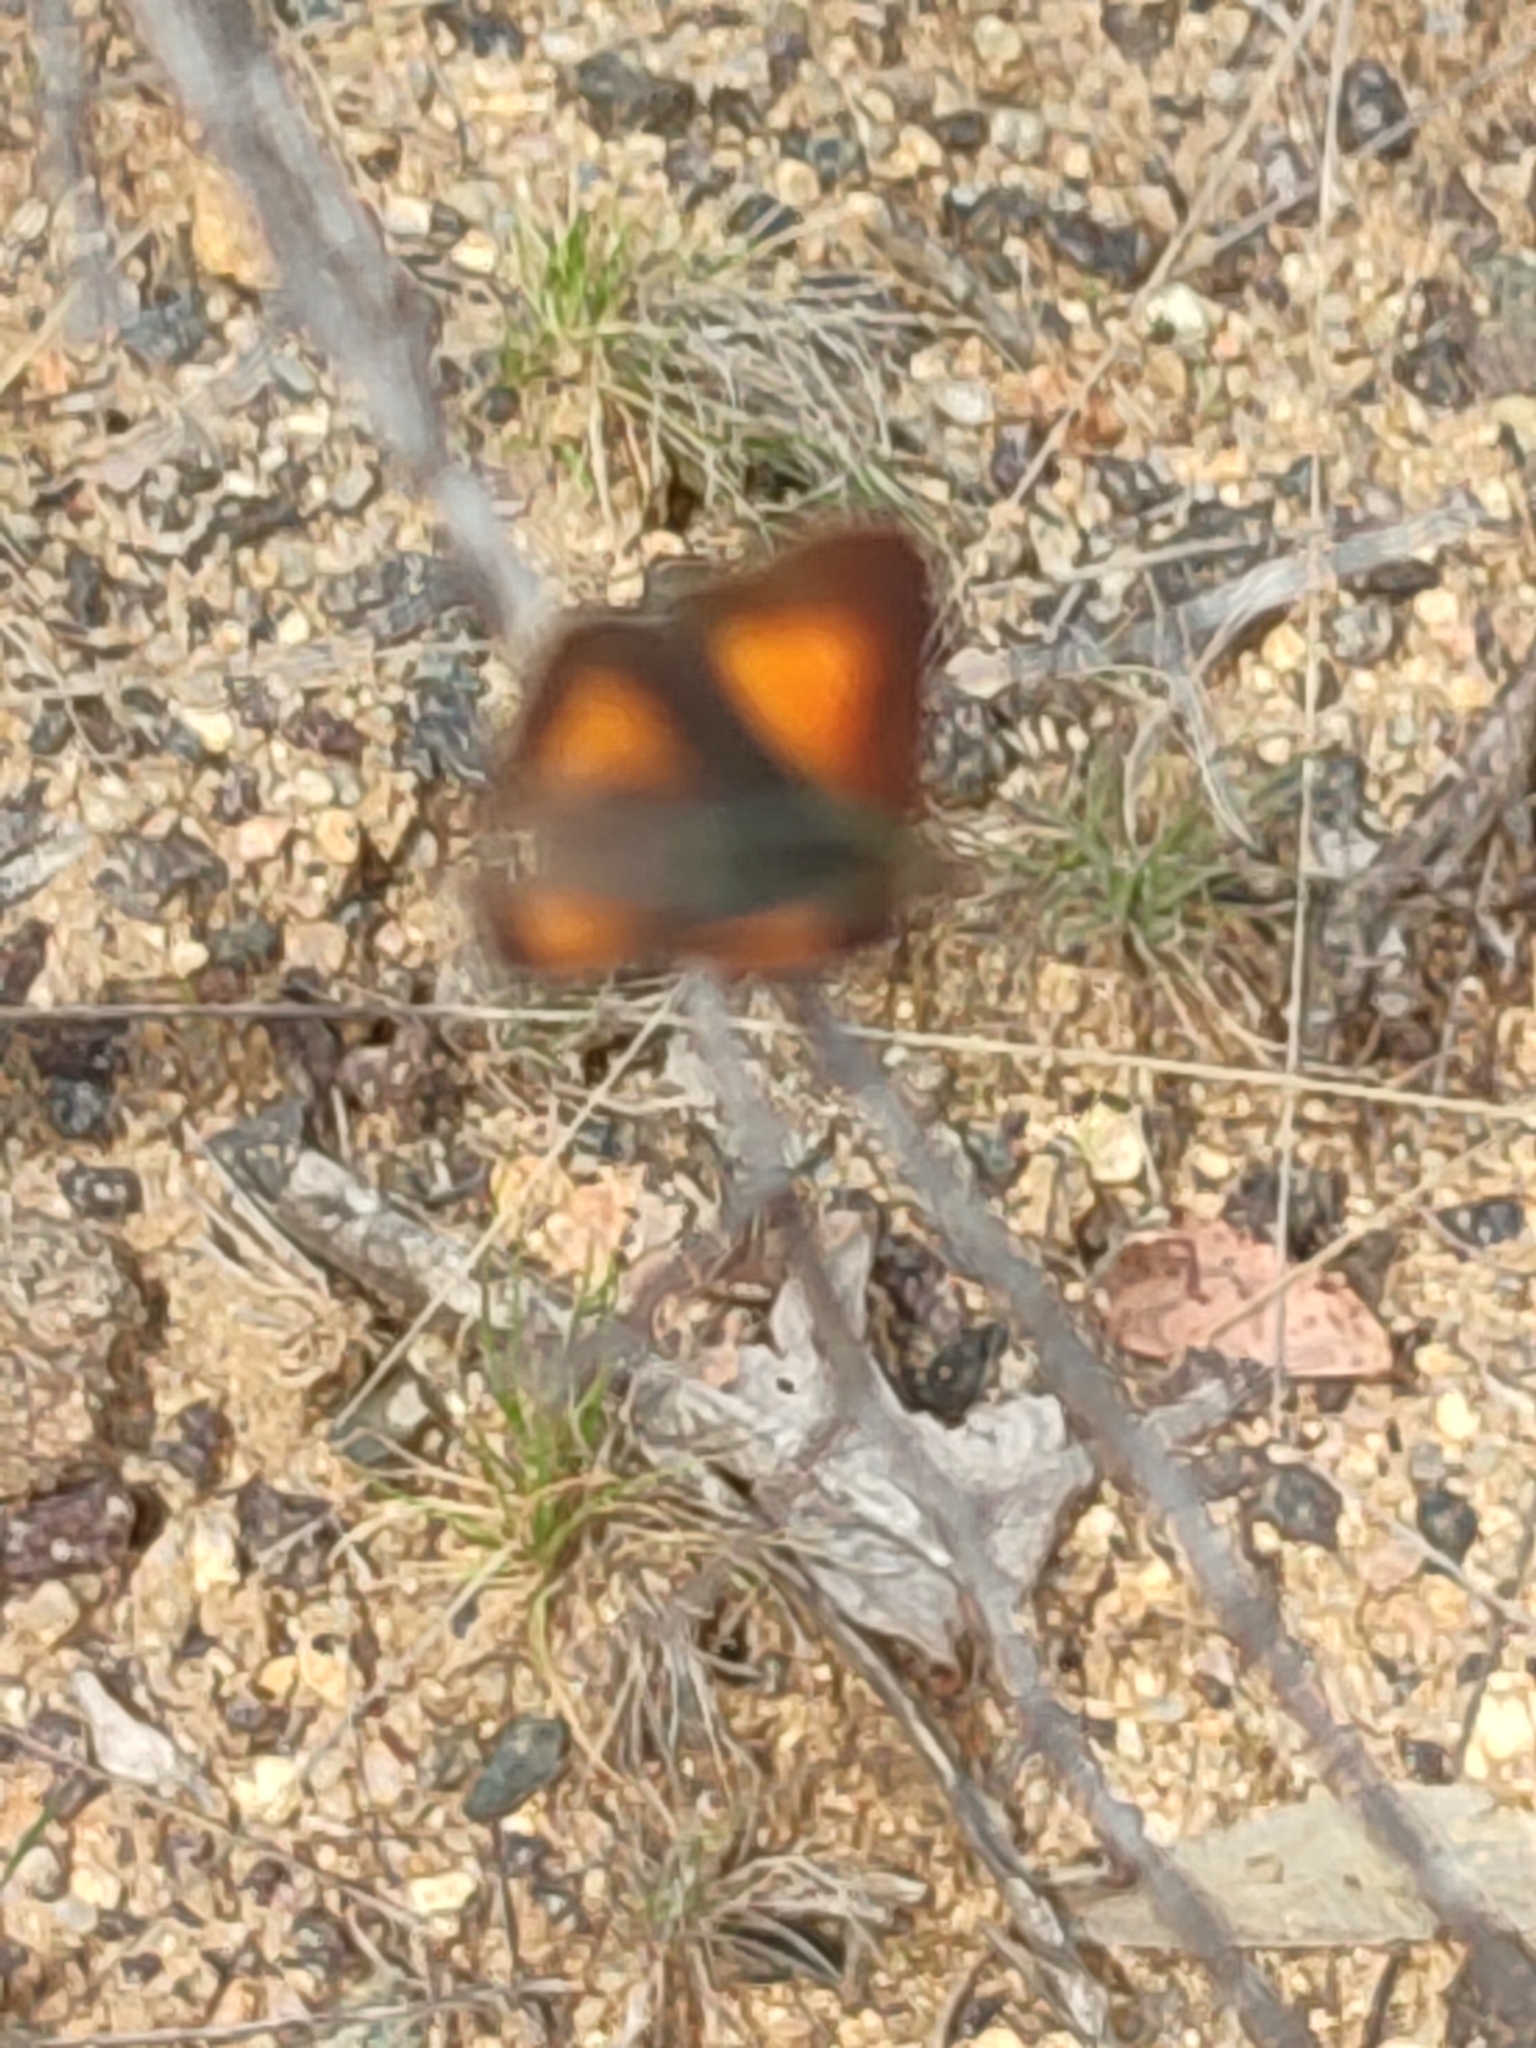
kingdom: Animalia
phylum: Arthropoda
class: Insecta
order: Lepidoptera
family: Lycaenidae
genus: Paralucia
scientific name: Paralucia aurifer
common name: Bright copper
